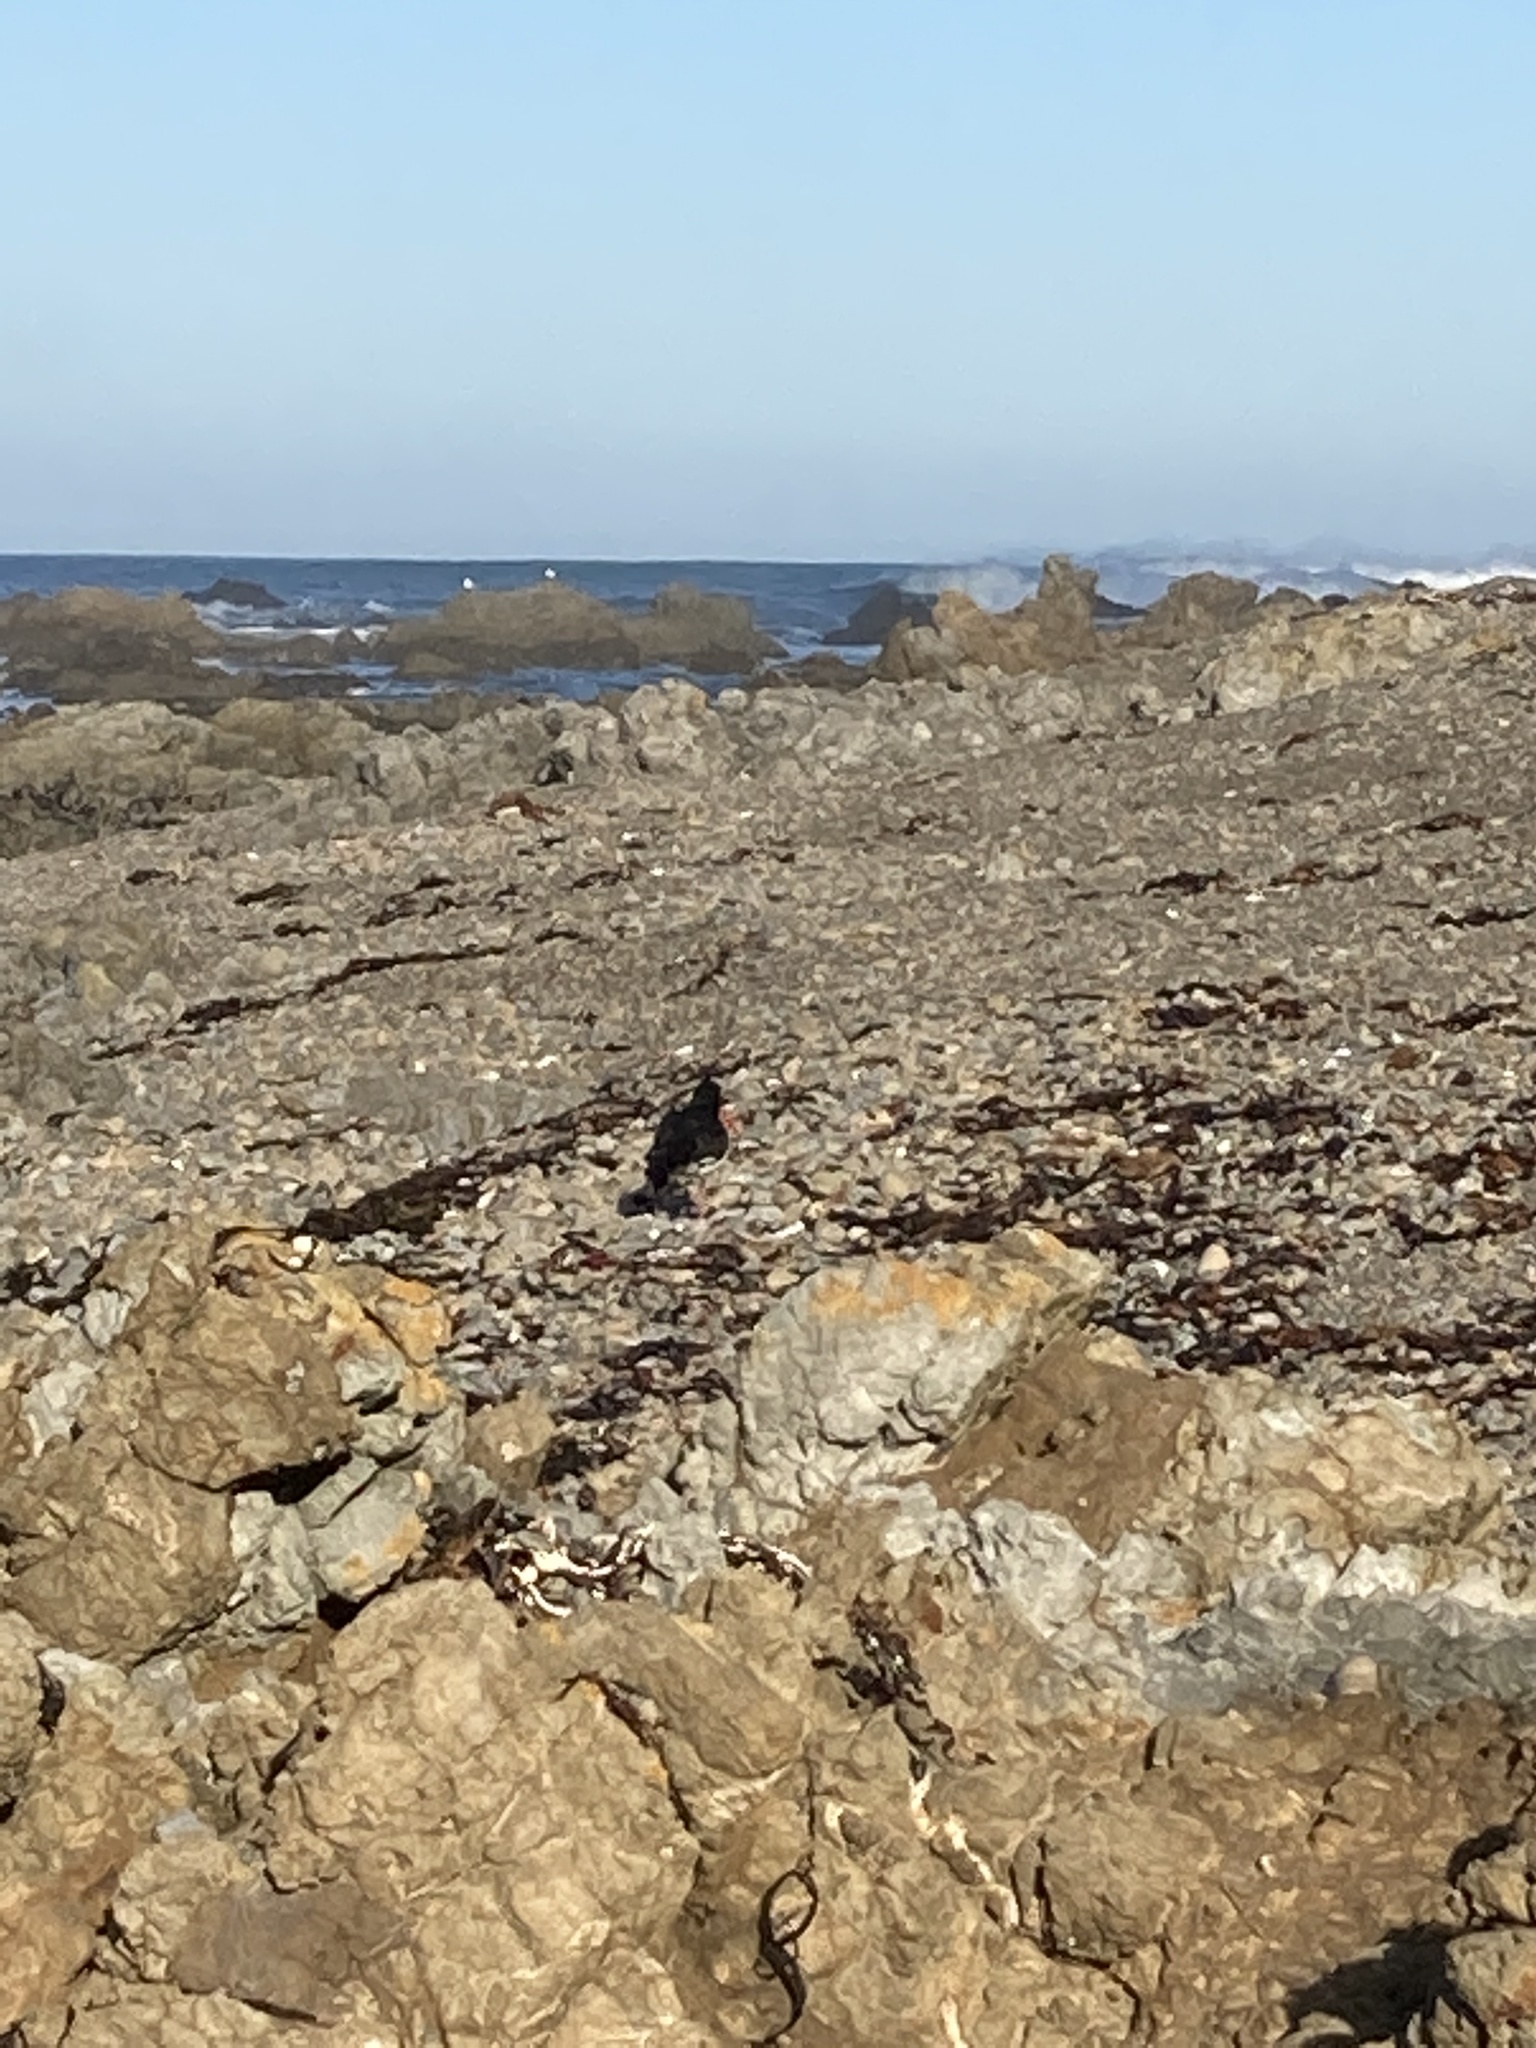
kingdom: Animalia
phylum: Chordata
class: Aves
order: Charadriiformes
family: Haematopodidae
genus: Haematopus
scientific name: Haematopus unicolor
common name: Variable oystercatcher
